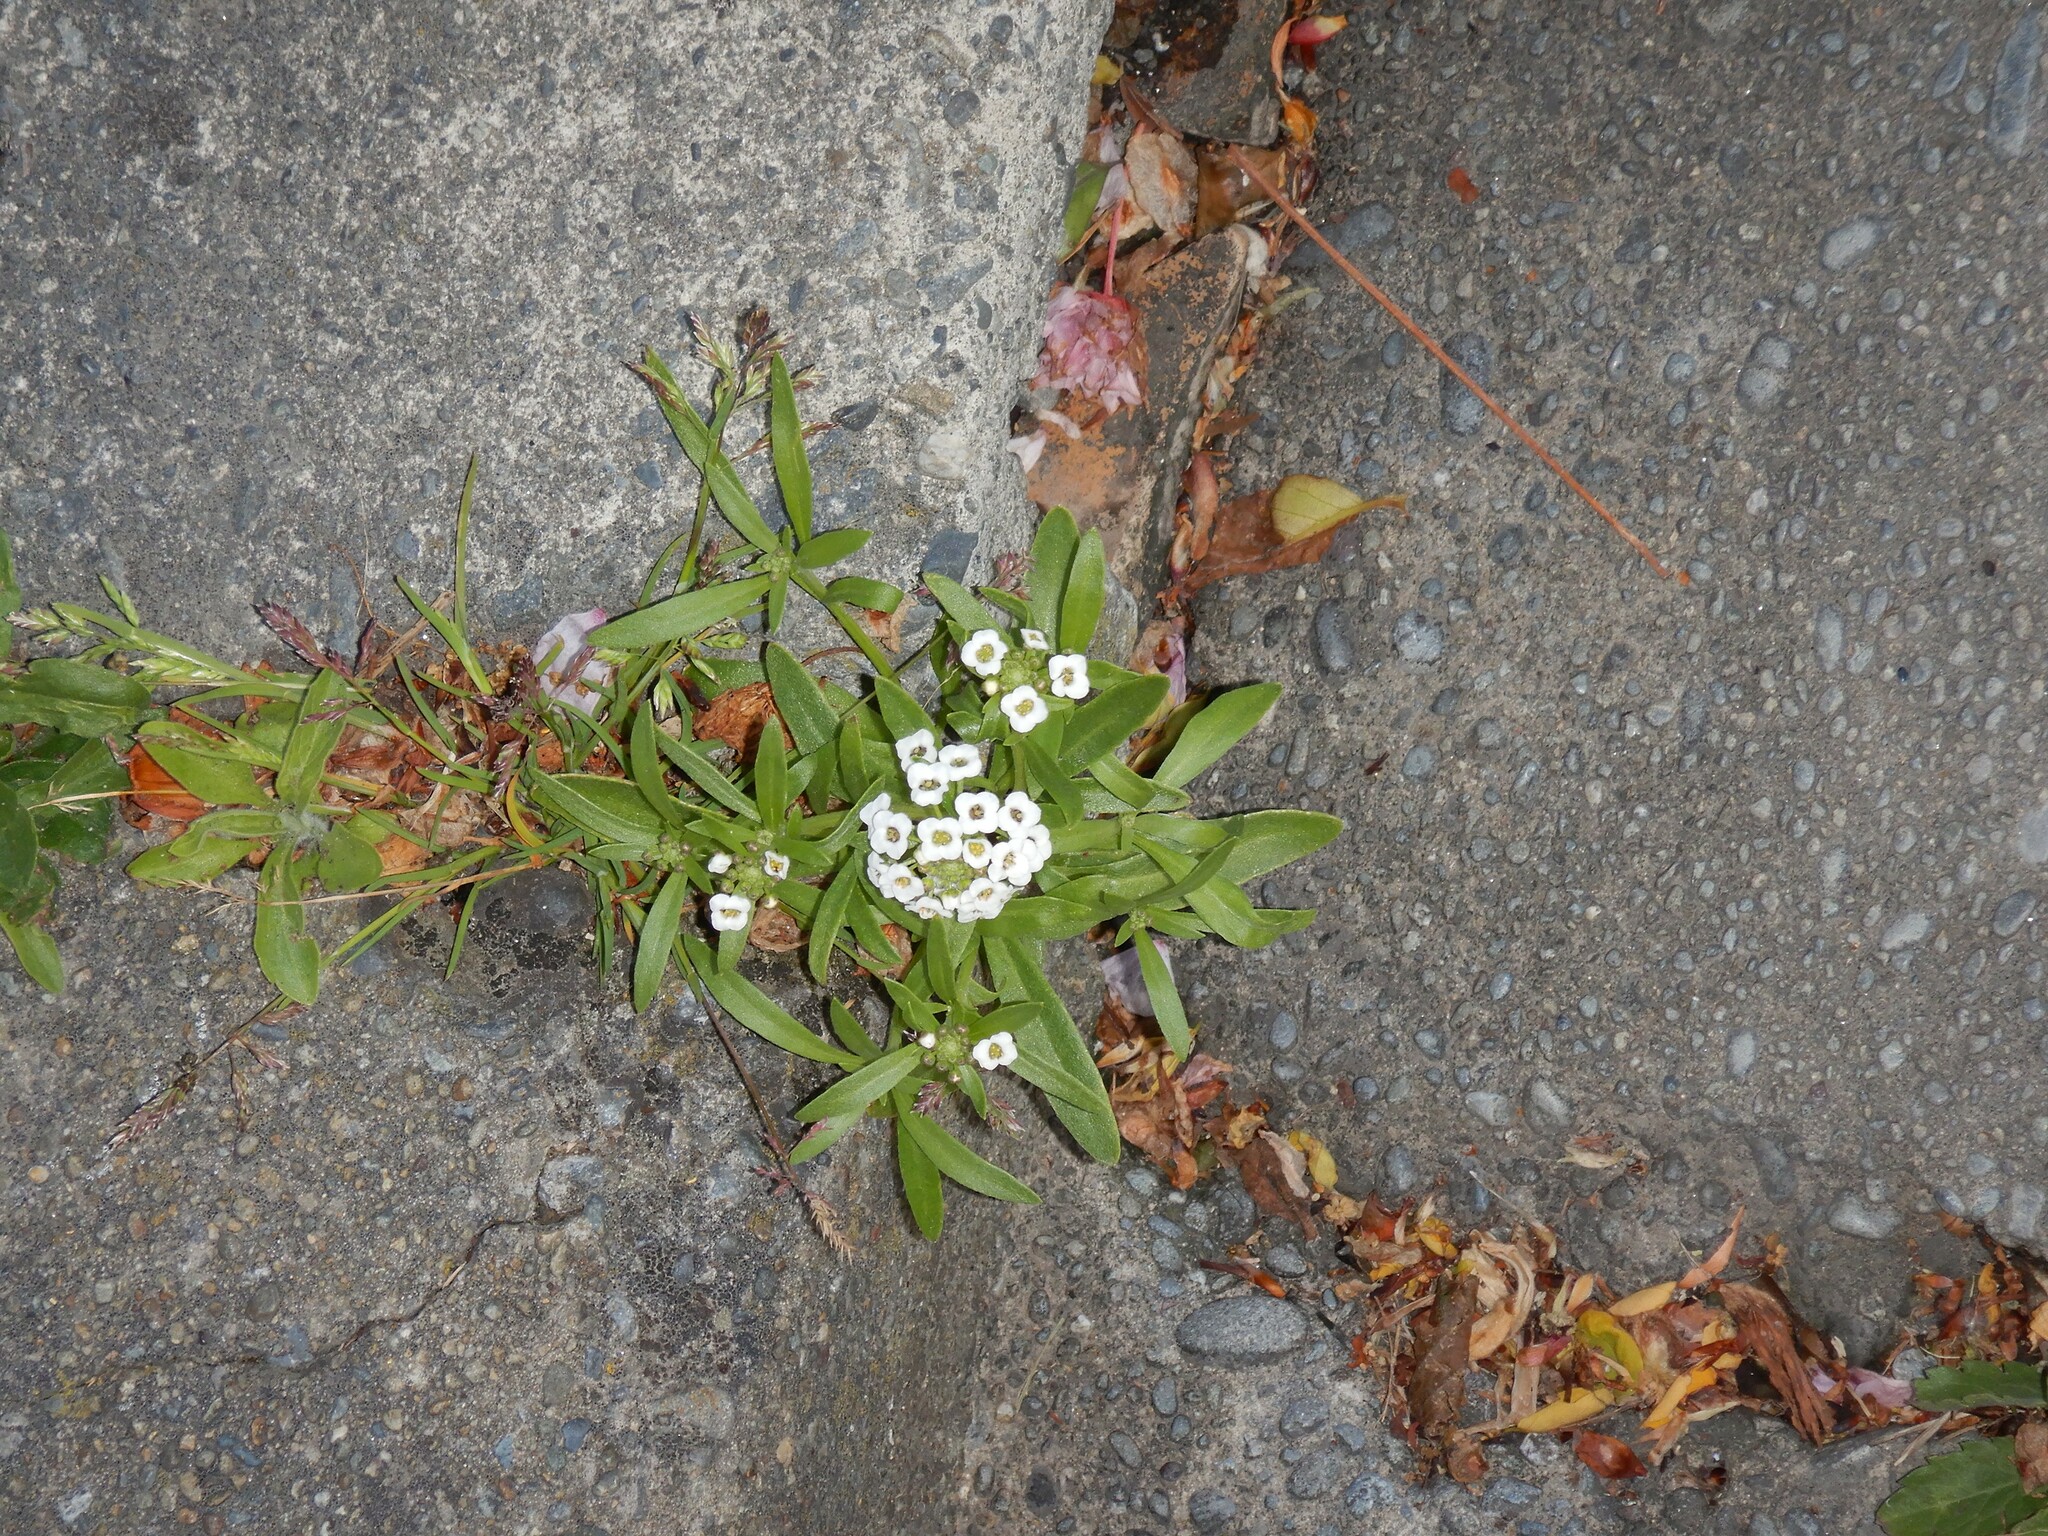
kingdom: Plantae
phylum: Tracheophyta
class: Magnoliopsida
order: Brassicales
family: Brassicaceae
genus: Lobularia
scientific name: Lobularia maritima
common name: Sweet alison
